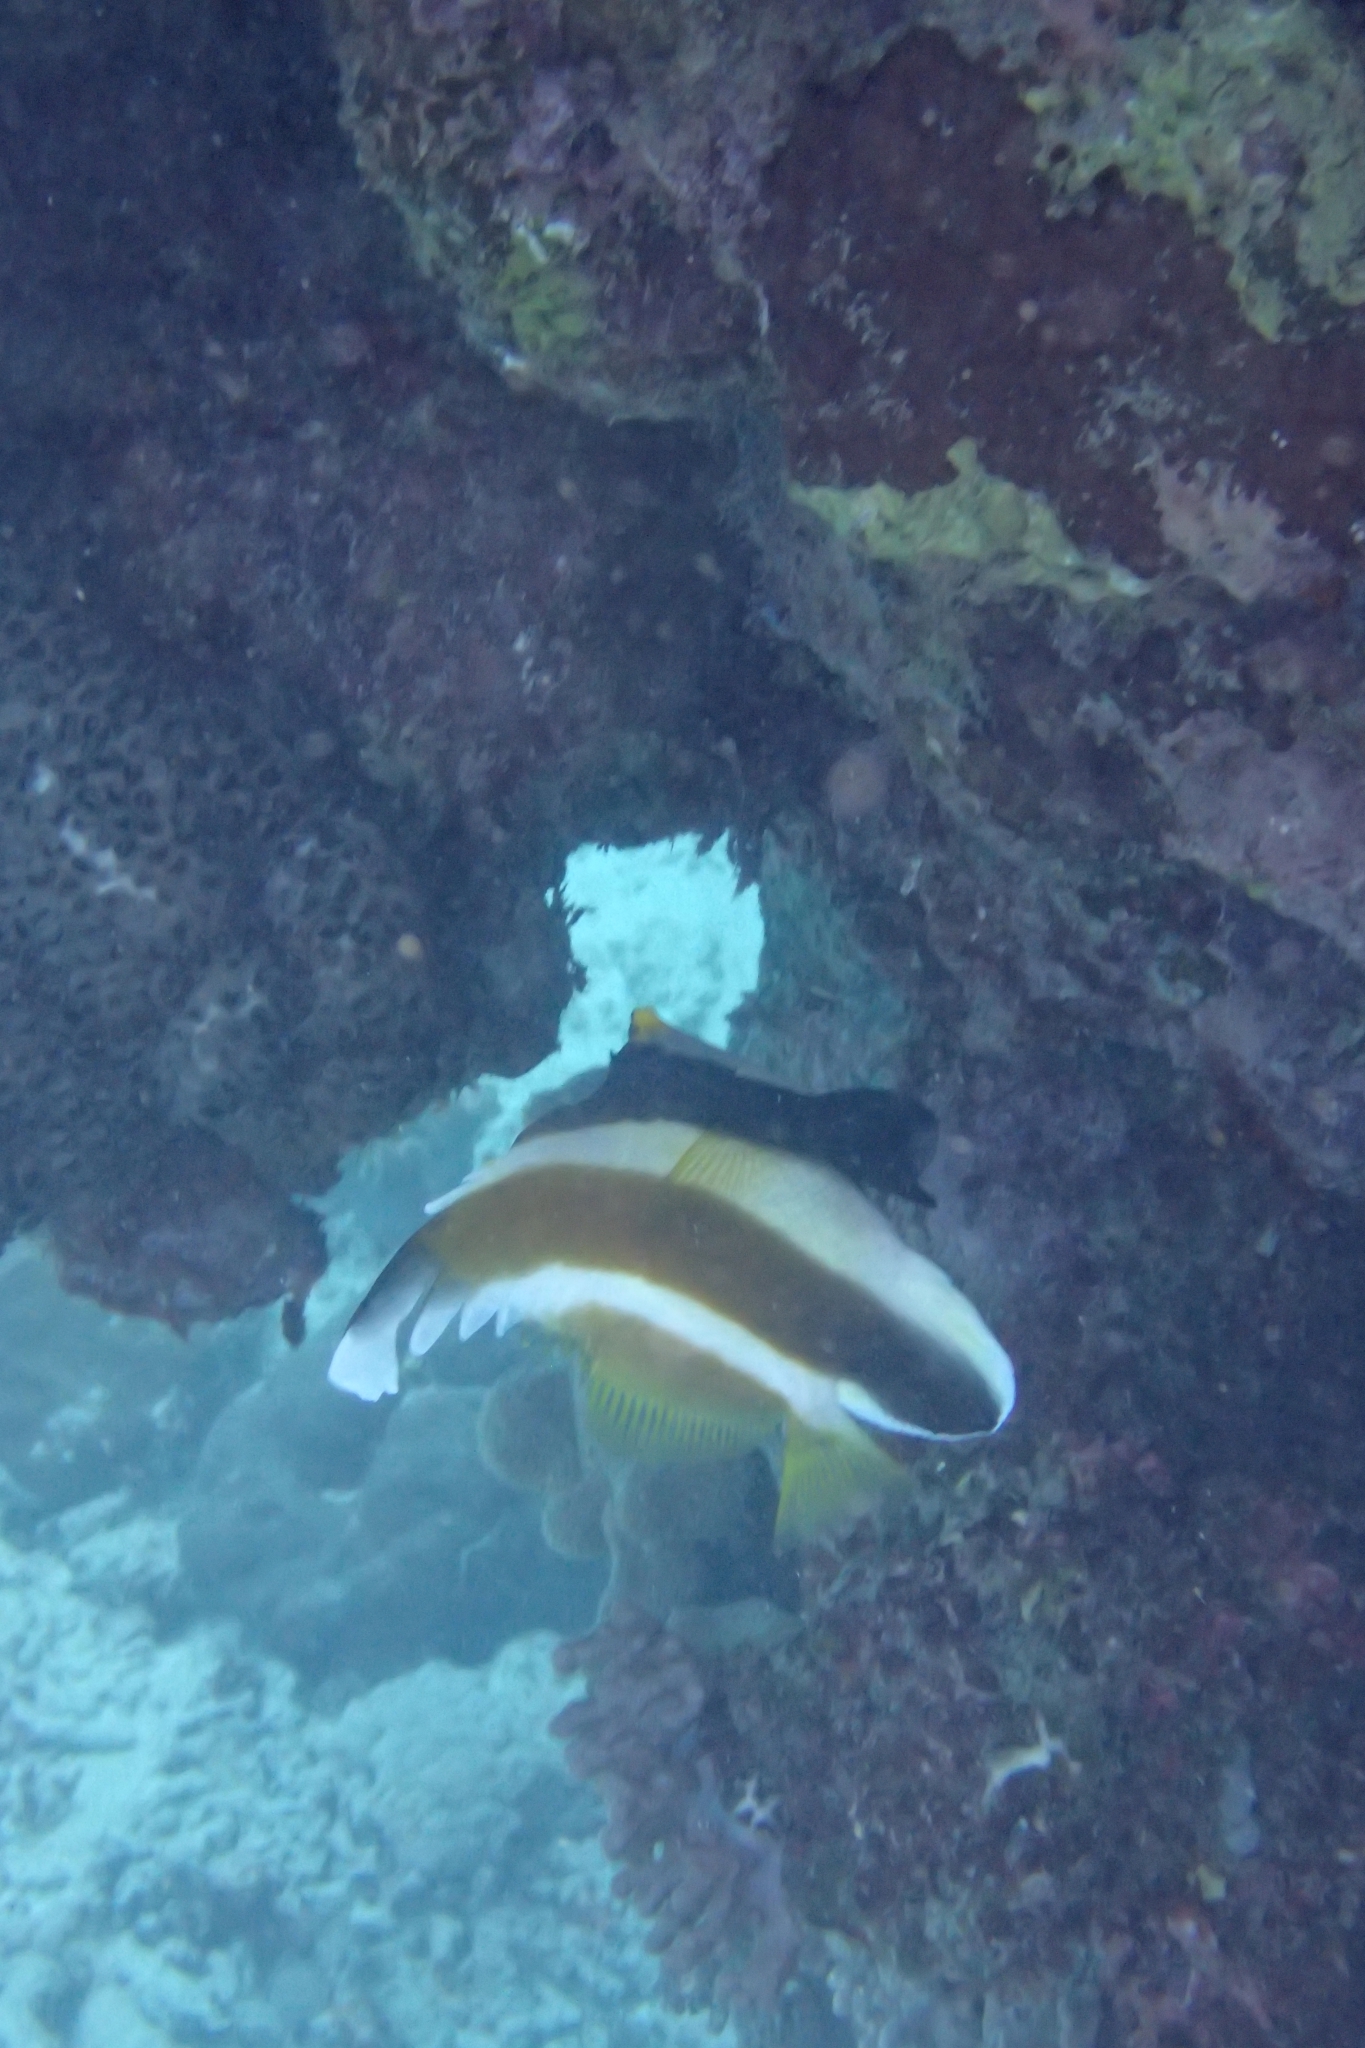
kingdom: Animalia
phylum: Chordata
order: Perciformes
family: Chaetodontidae
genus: Heniochus
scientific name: Heniochus chrysostomus
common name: Horned bannerfish
